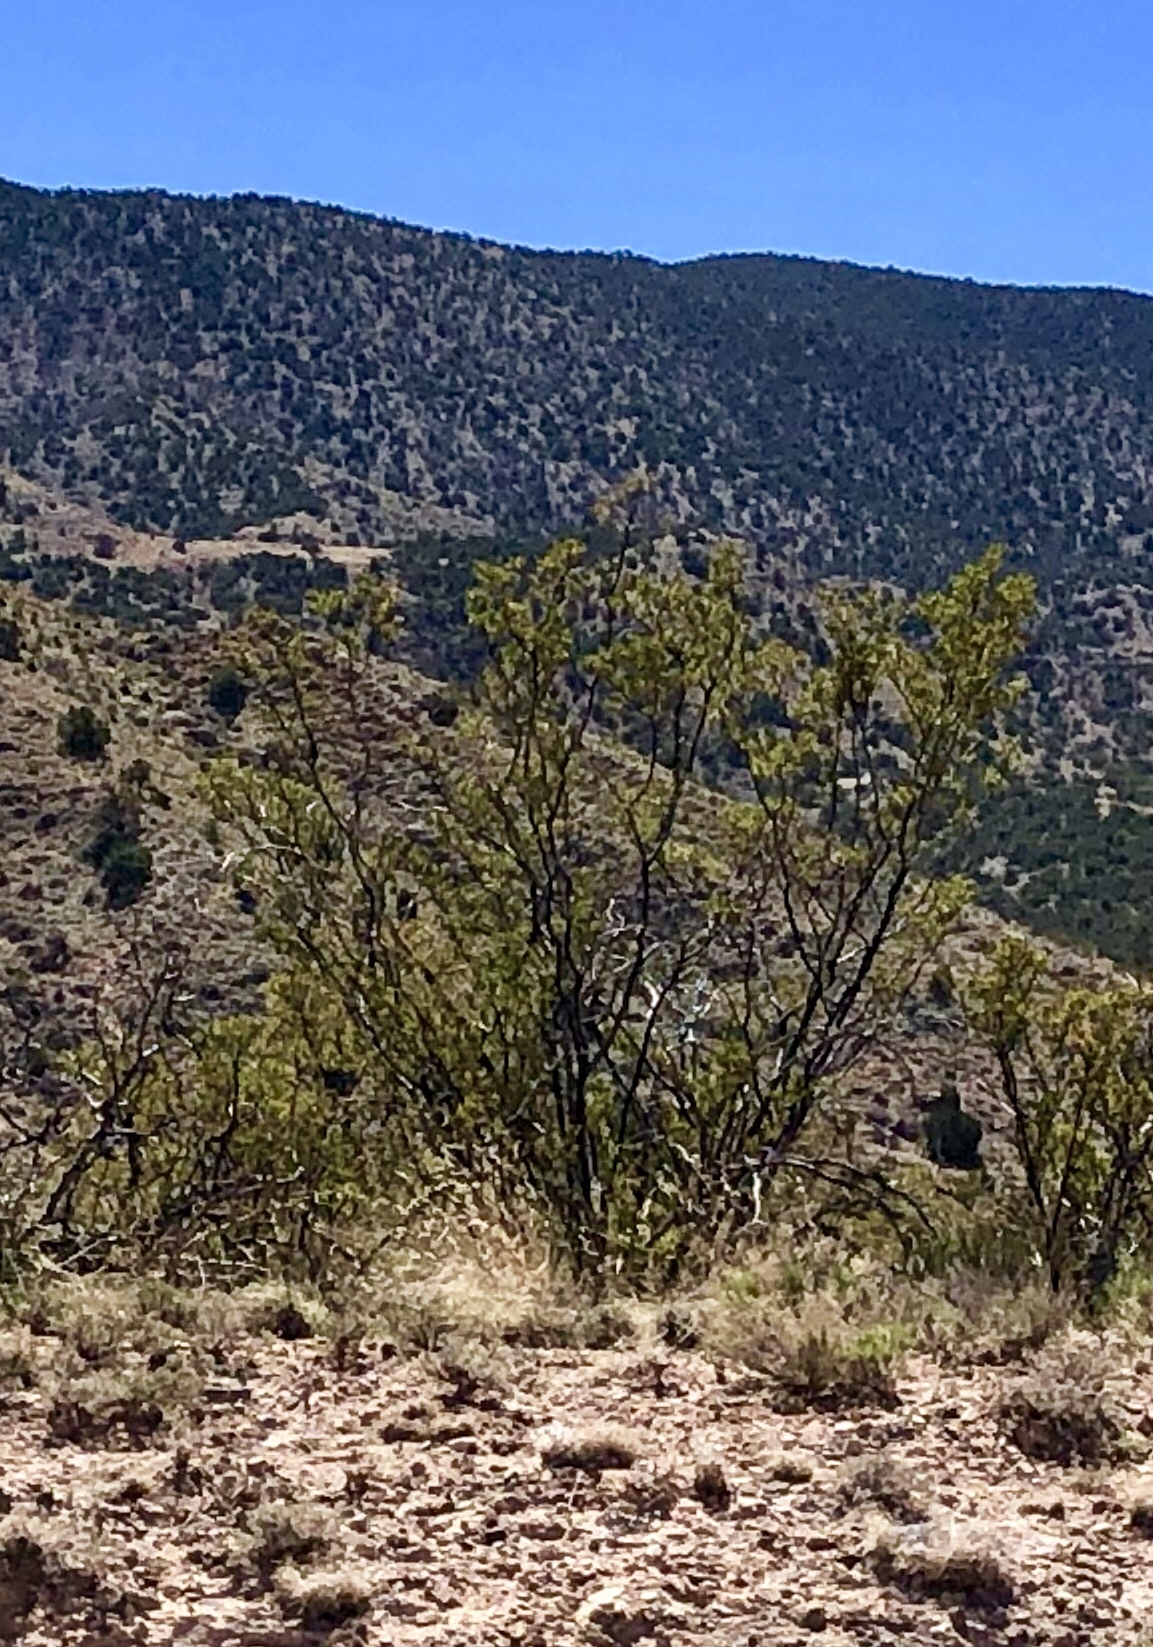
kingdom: Plantae
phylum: Tracheophyta
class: Magnoliopsida
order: Zygophyllales
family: Zygophyllaceae
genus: Larrea
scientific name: Larrea tridentata
